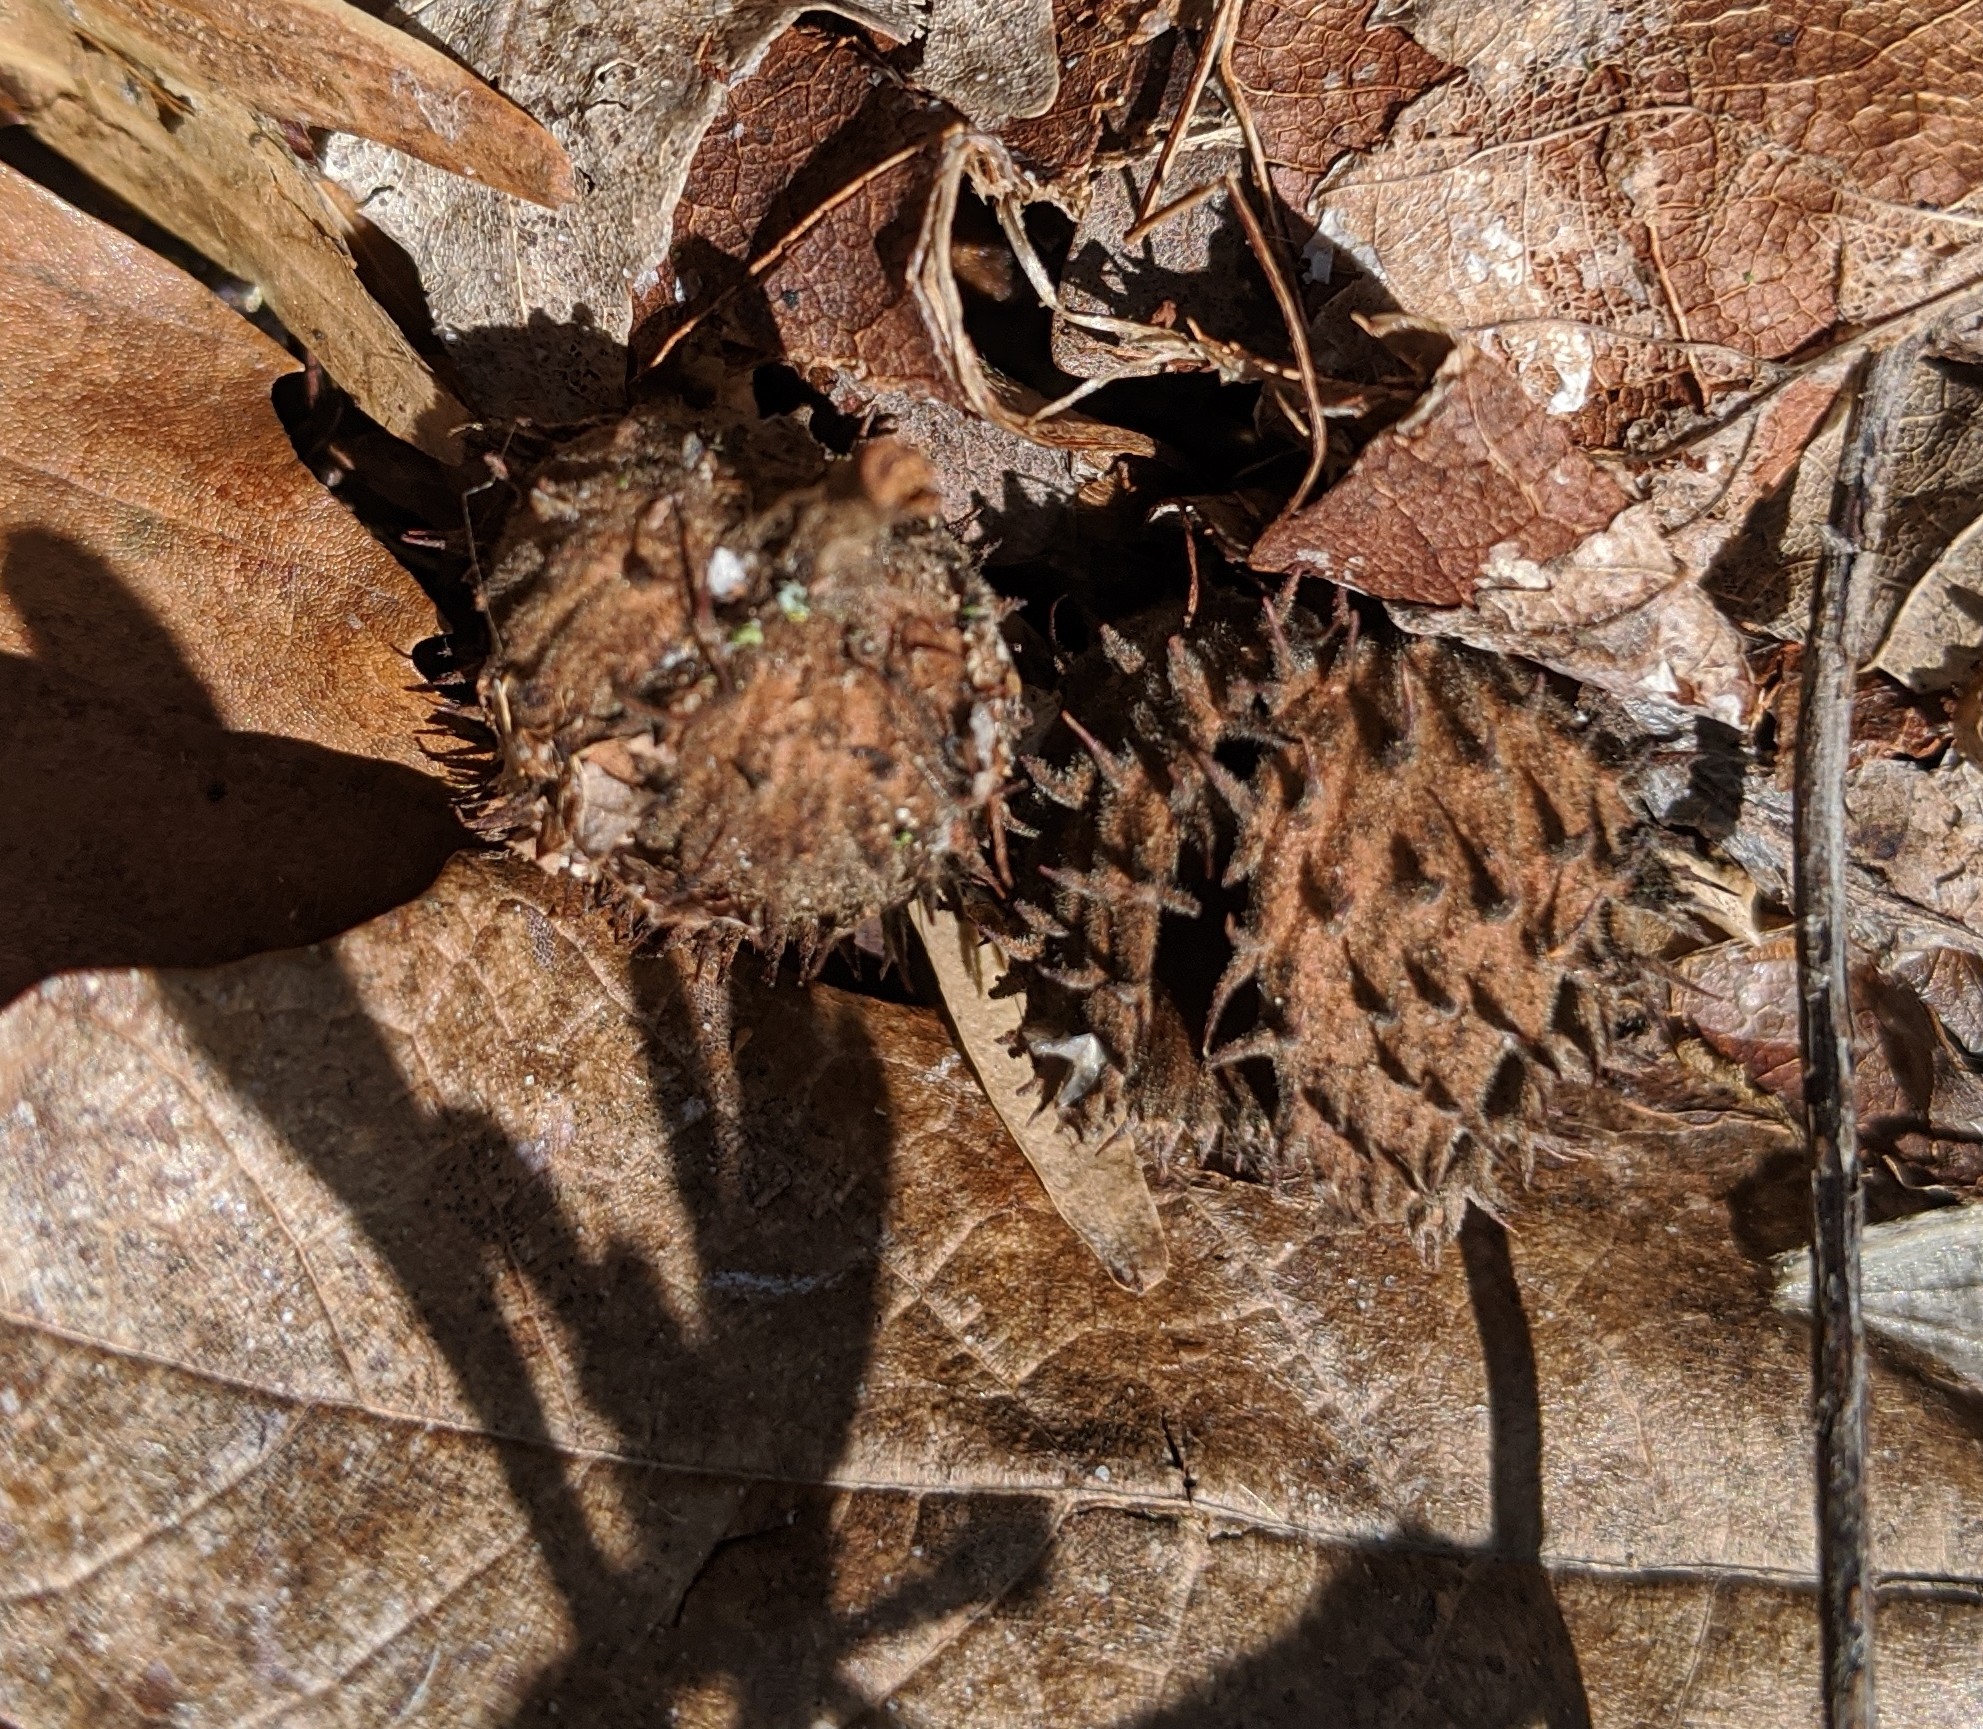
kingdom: Plantae
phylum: Tracheophyta
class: Magnoliopsida
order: Fagales
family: Fagaceae
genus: Fagus
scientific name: Fagus grandifolia
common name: American beech
